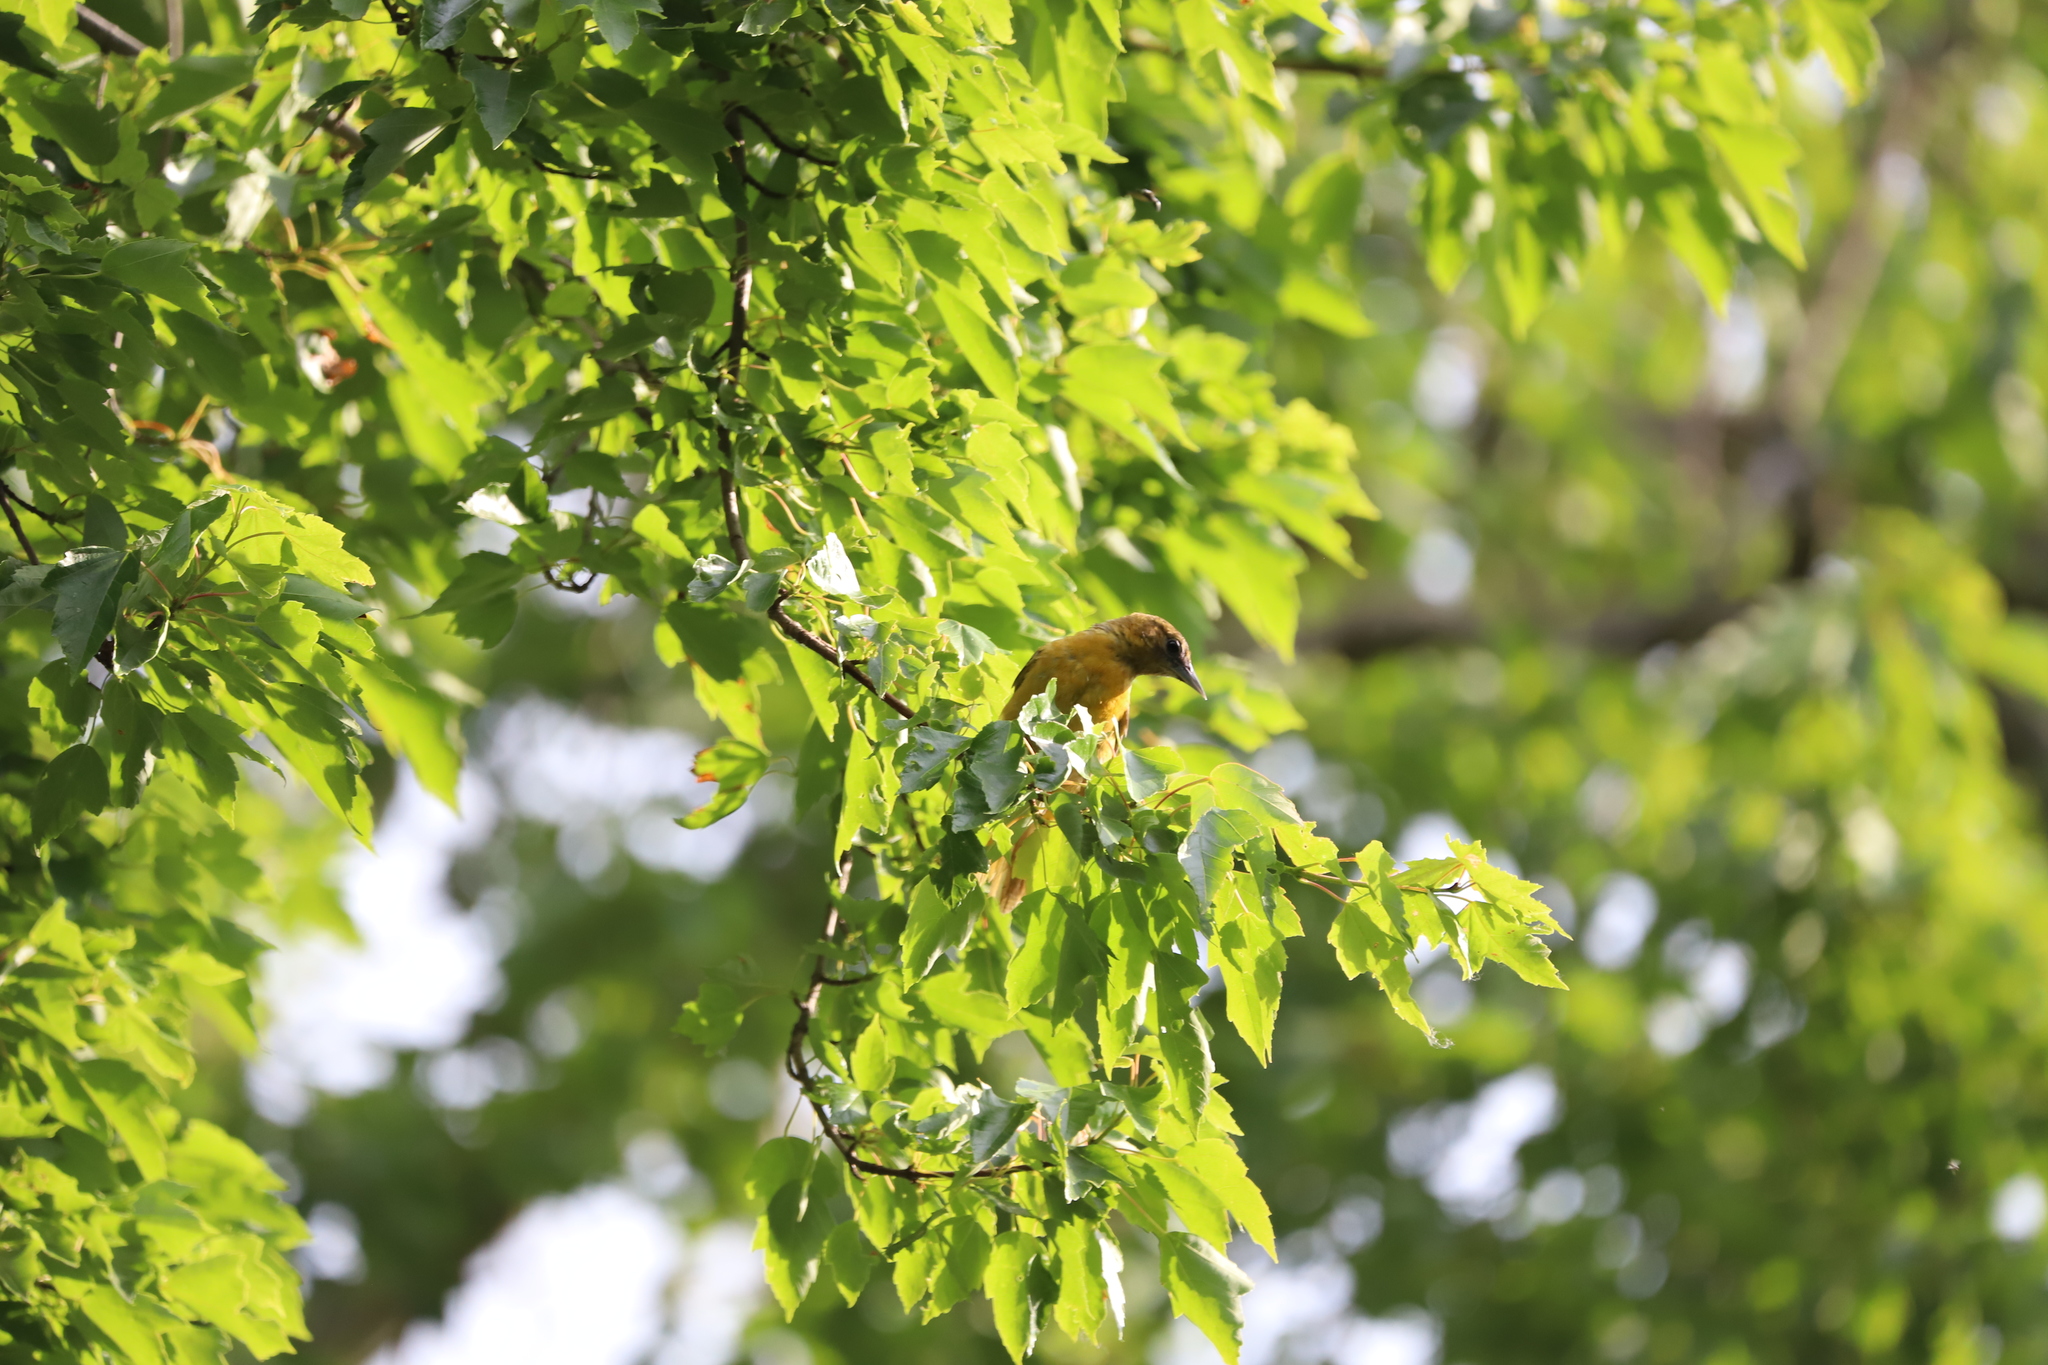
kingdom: Animalia
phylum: Chordata
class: Aves
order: Passeriformes
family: Icteridae
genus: Icterus
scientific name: Icterus galbula
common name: Baltimore oriole
